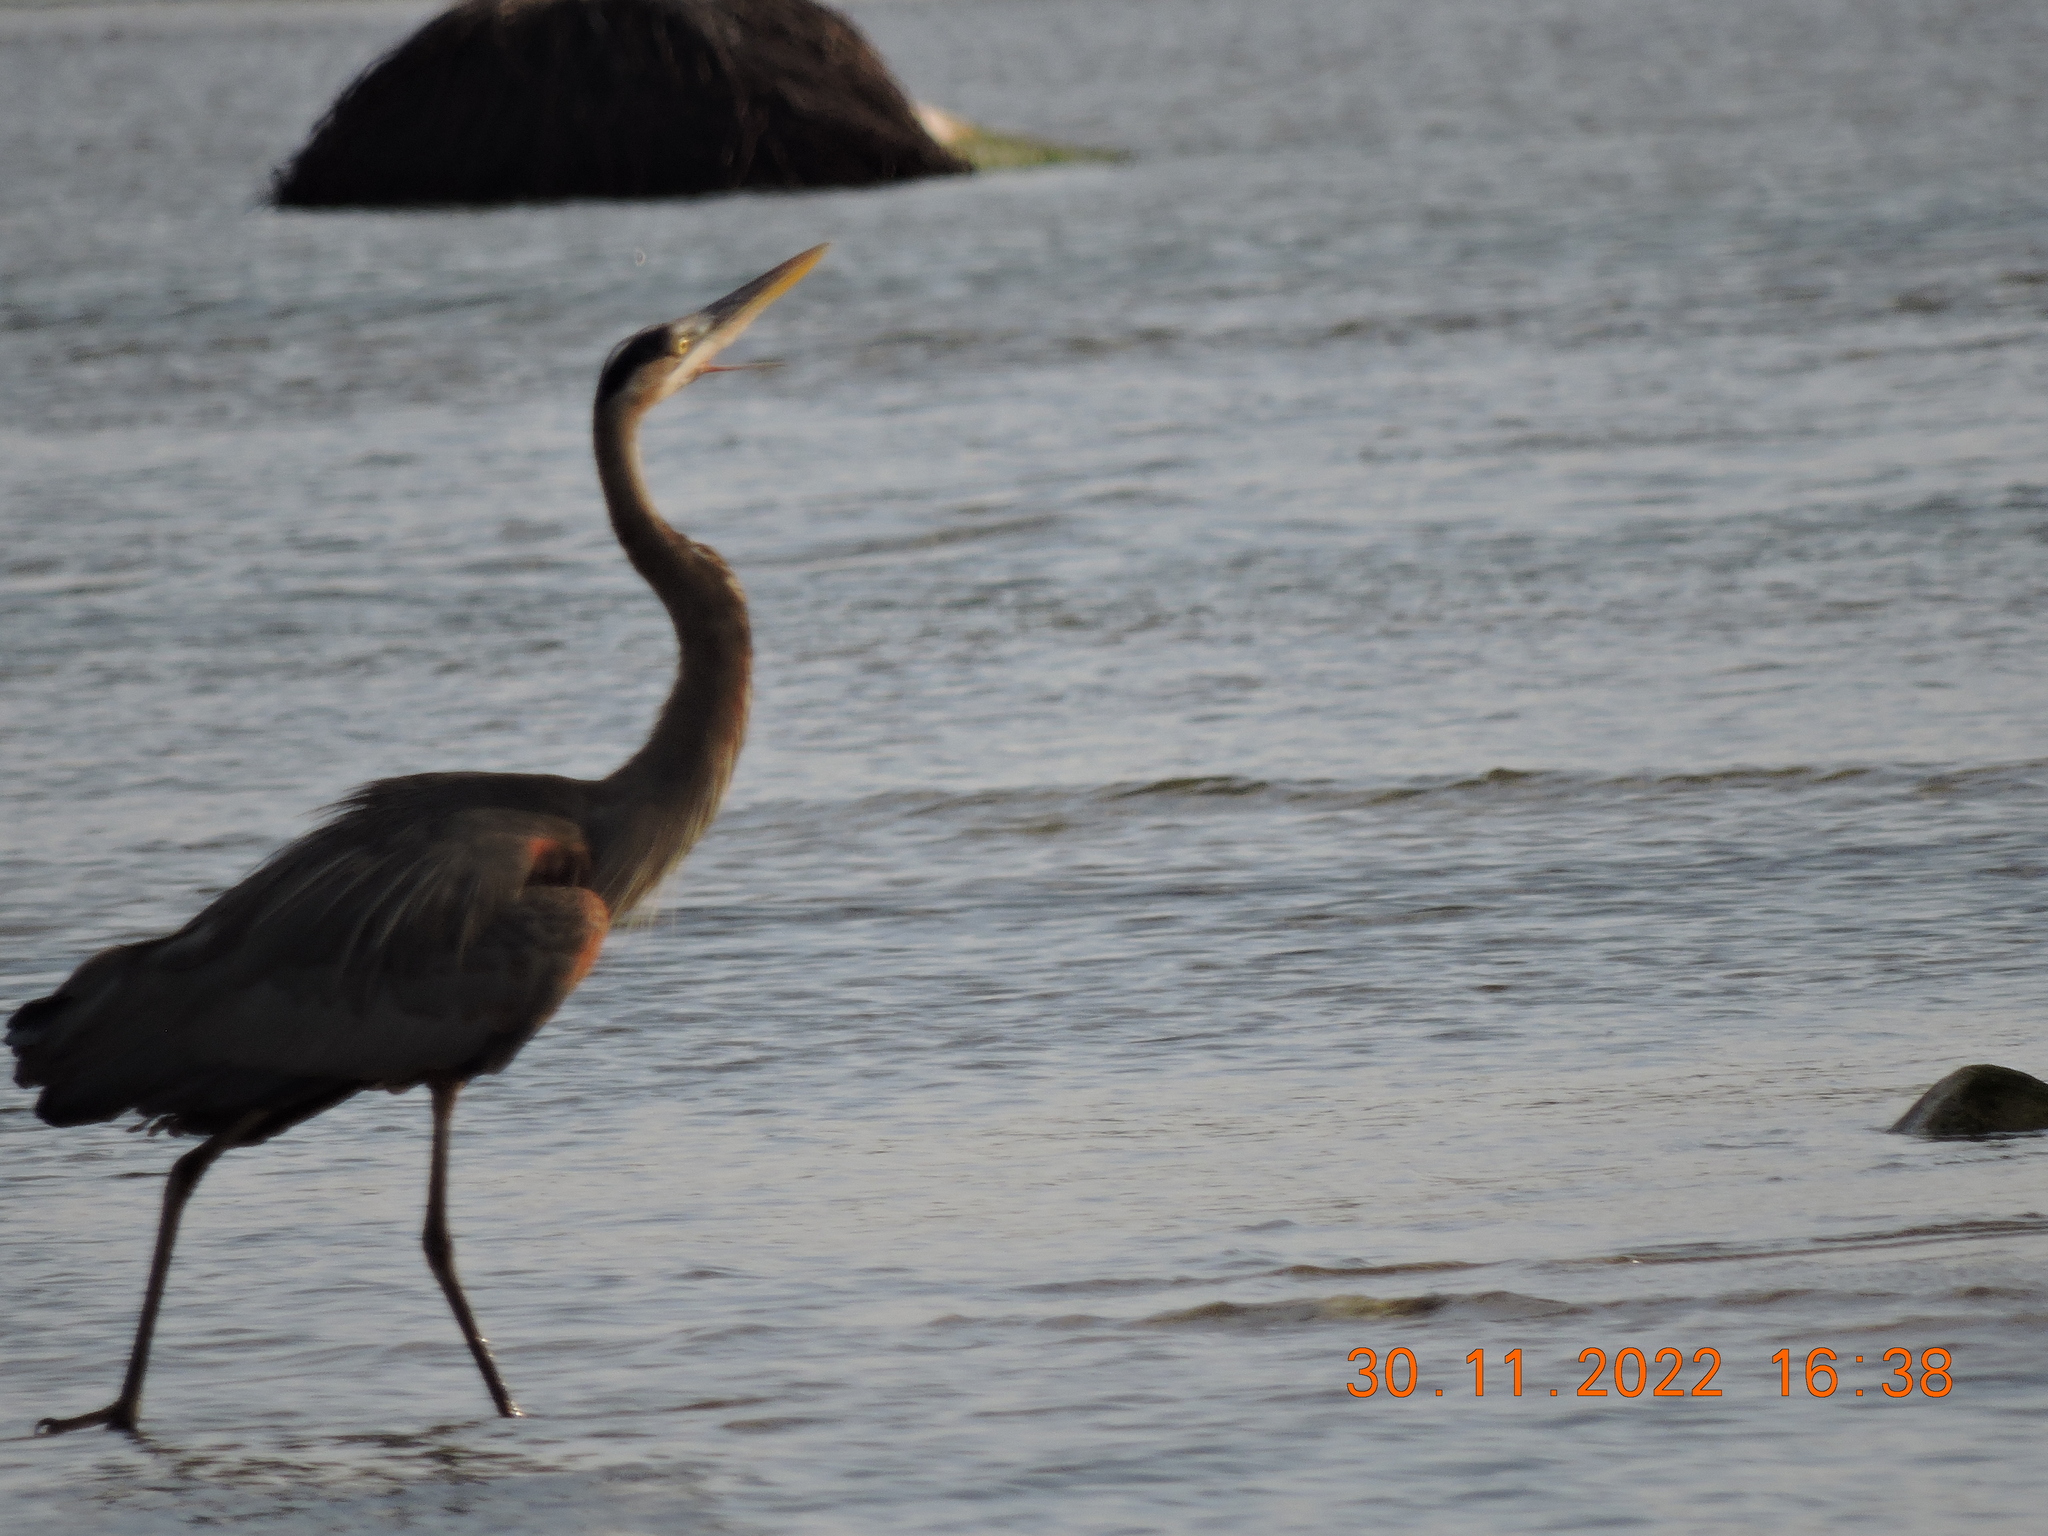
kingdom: Animalia
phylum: Chordata
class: Aves
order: Pelecaniformes
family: Ardeidae
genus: Ardea
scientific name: Ardea herodias
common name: Great blue heron
